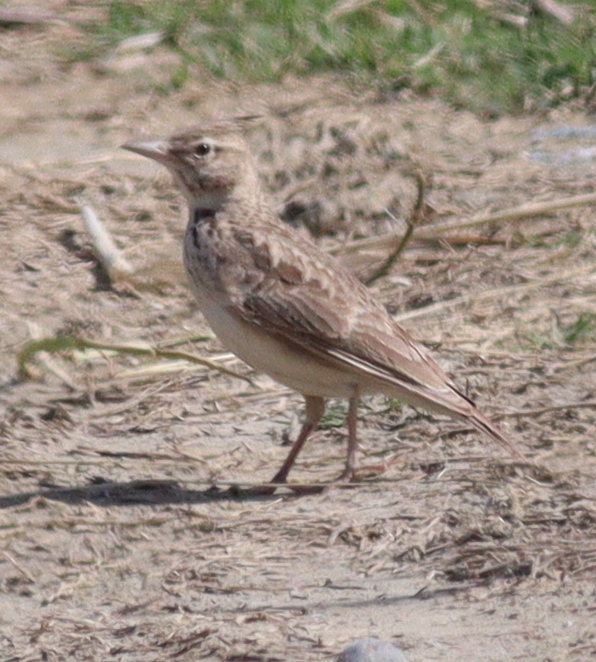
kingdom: Animalia
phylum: Chordata
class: Aves
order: Passeriformes
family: Alaudidae
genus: Galerida
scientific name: Galerida cristata
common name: Crested lark
